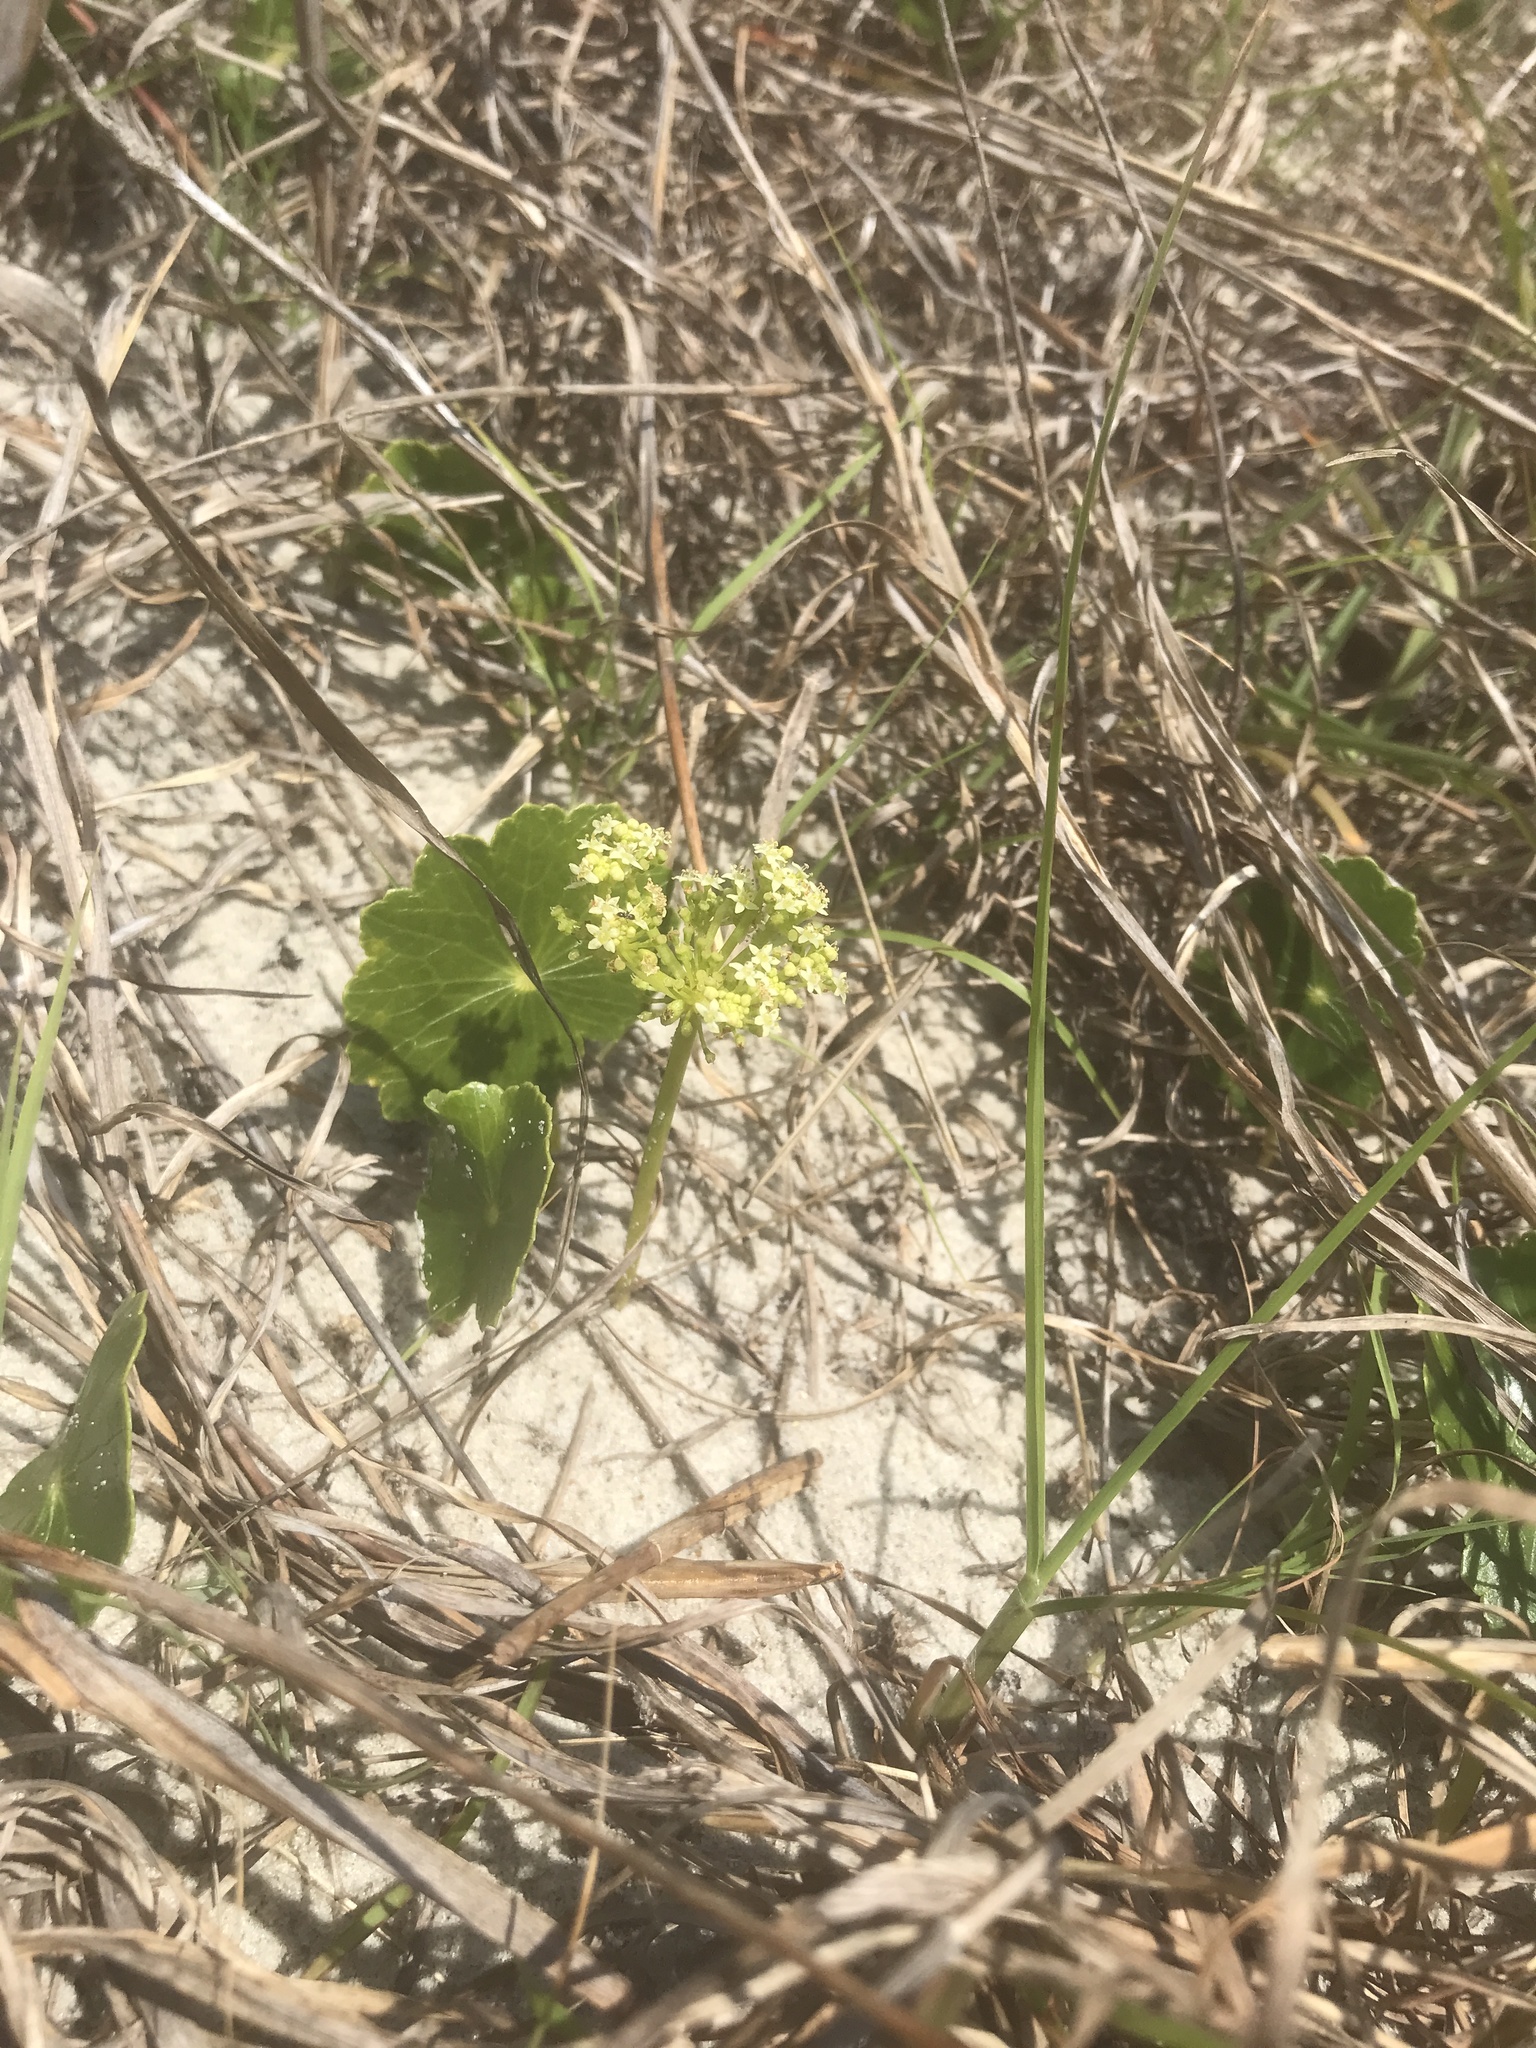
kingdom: Plantae
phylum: Tracheophyta
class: Magnoliopsida
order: Apiales
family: Araliaceae
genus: Hydrocotyle
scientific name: Hydrocotyle bonariensis
